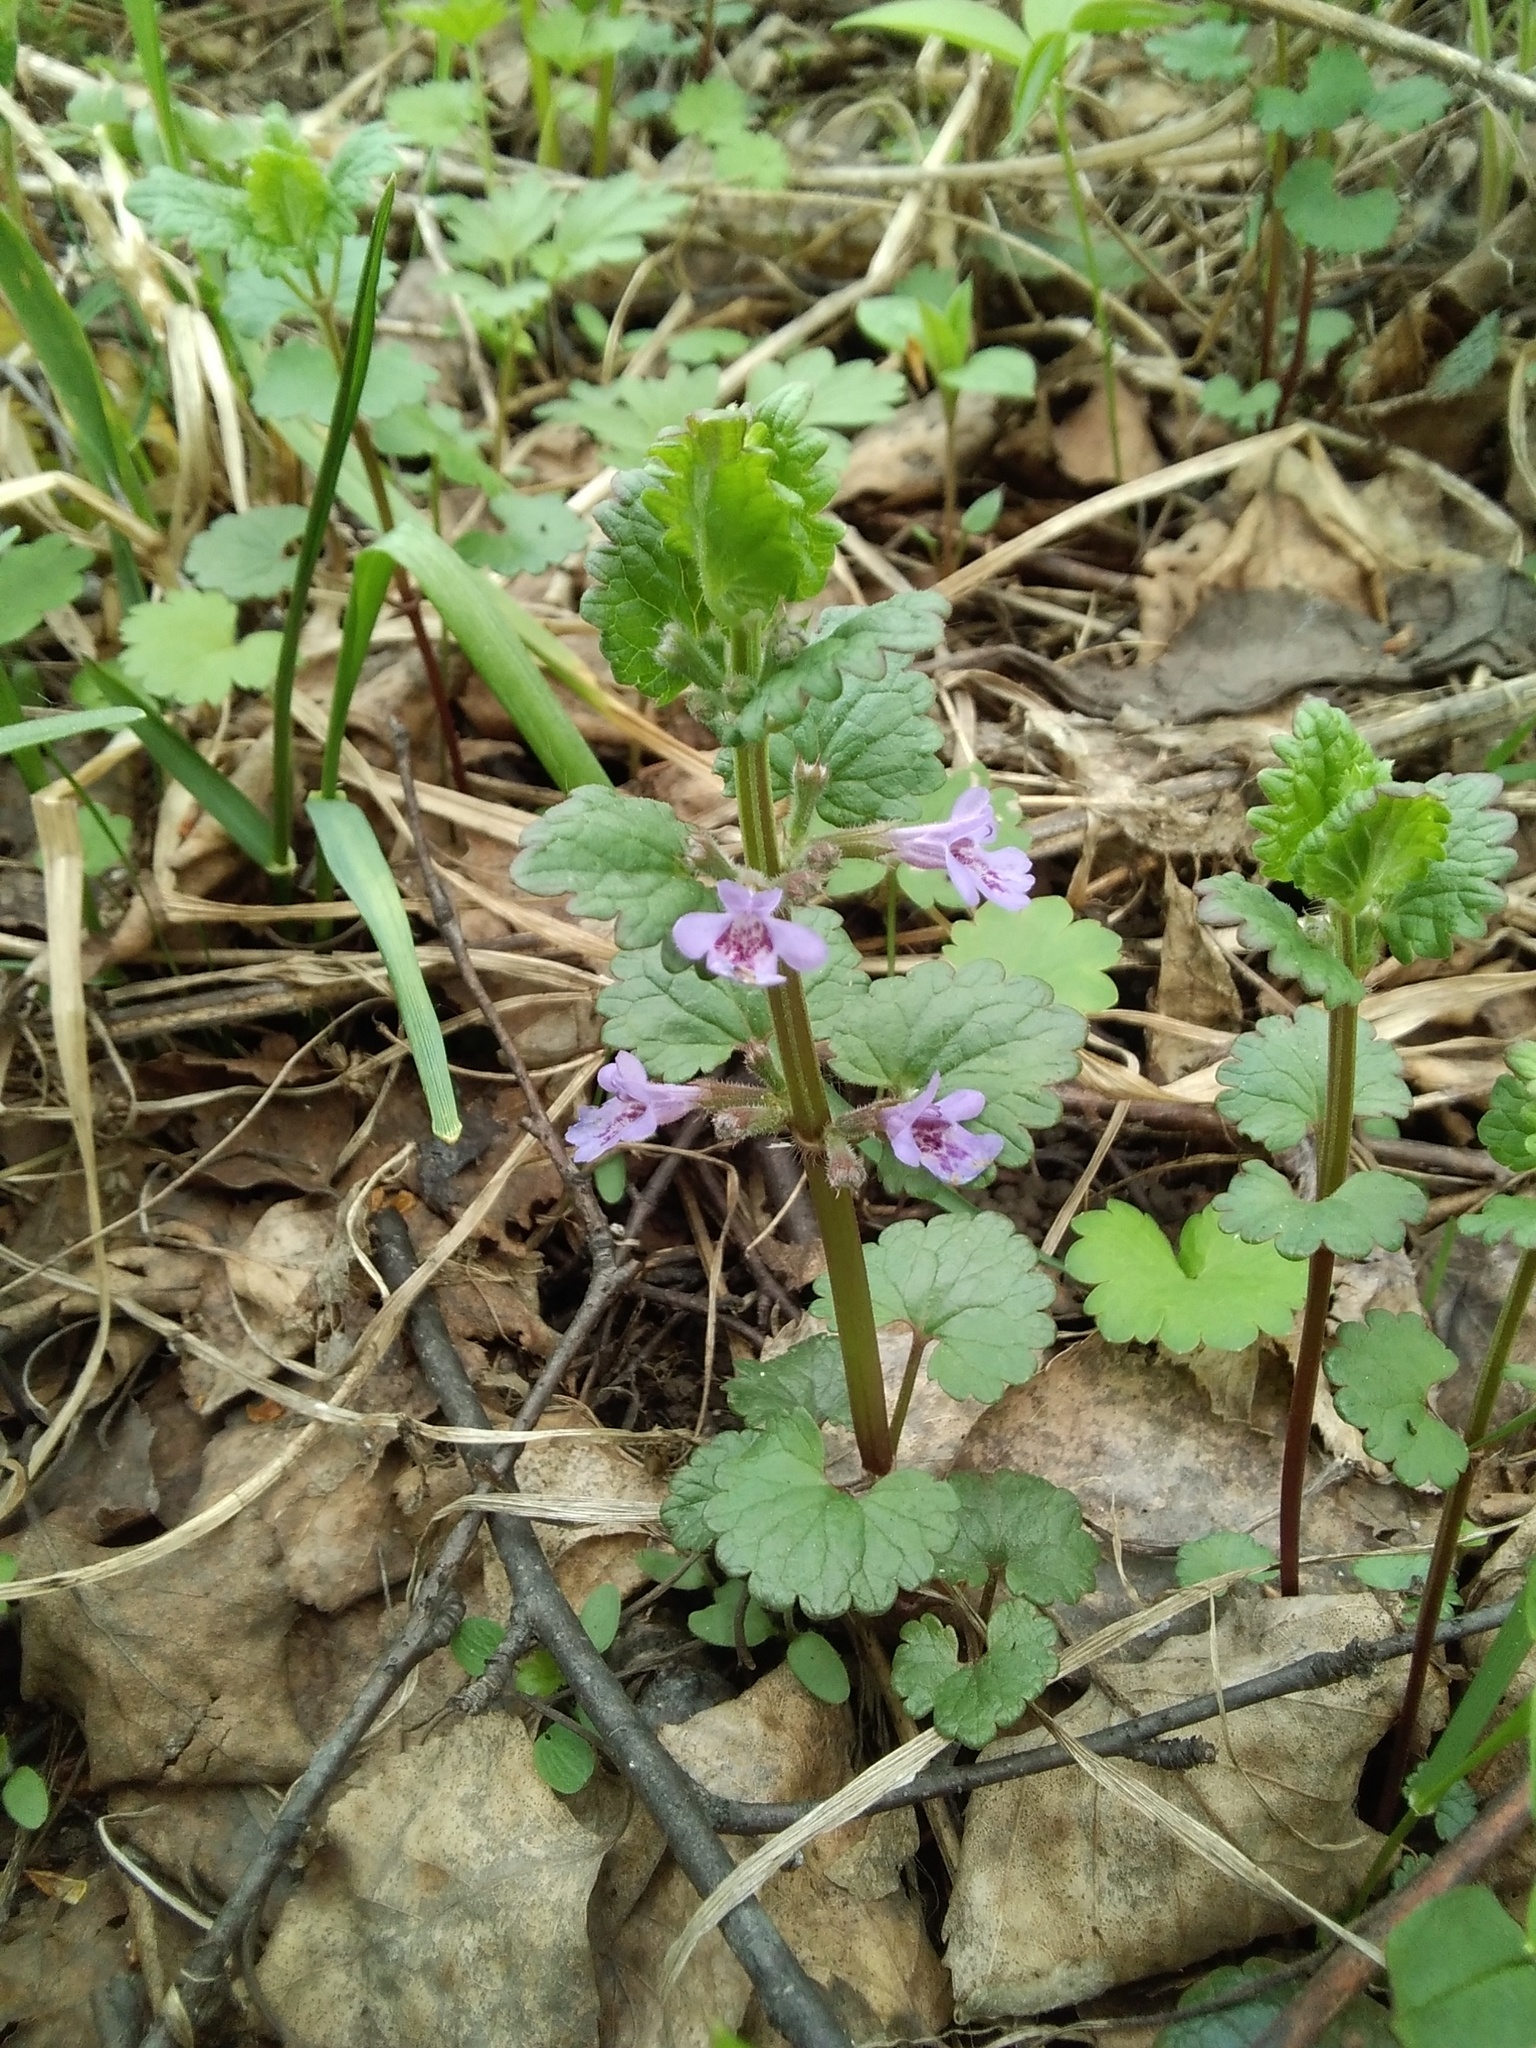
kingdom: Plantae
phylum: Tracheophyta
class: Magnoliopsida
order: Lamiales
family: Lamiaceae
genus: Glechoma
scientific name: Glechoma hederacea
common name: Ground ivy
